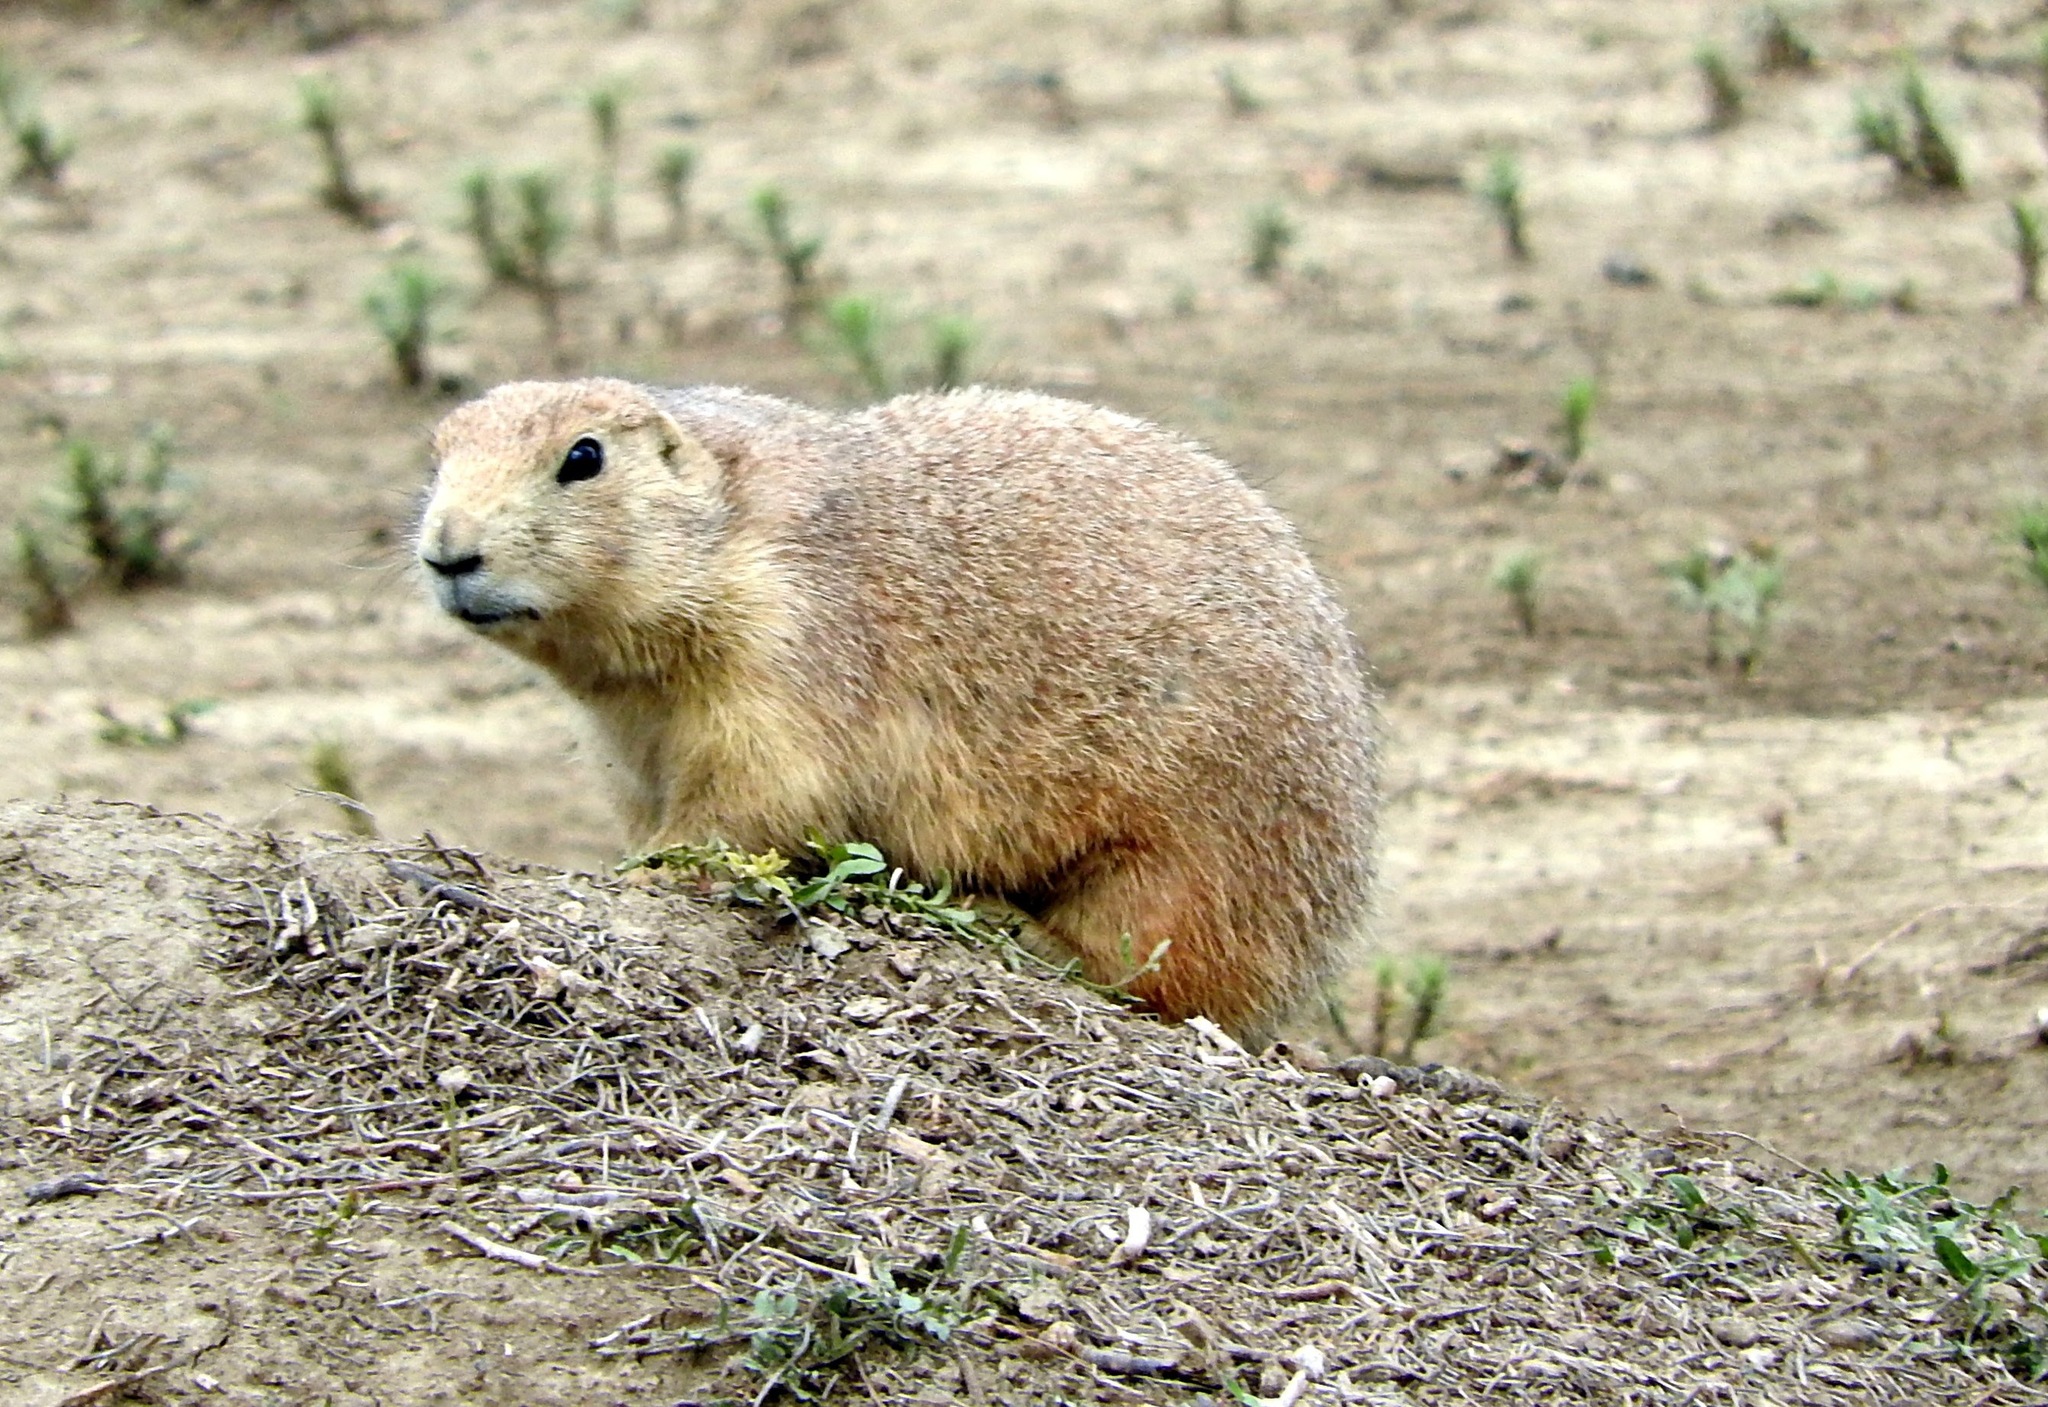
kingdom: Animalia
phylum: Chordata
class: Mammalia
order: Rodentia
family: Sciuridae
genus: Cynomys
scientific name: Cynomys ludovicianus
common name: Black-tailed prairie dog
